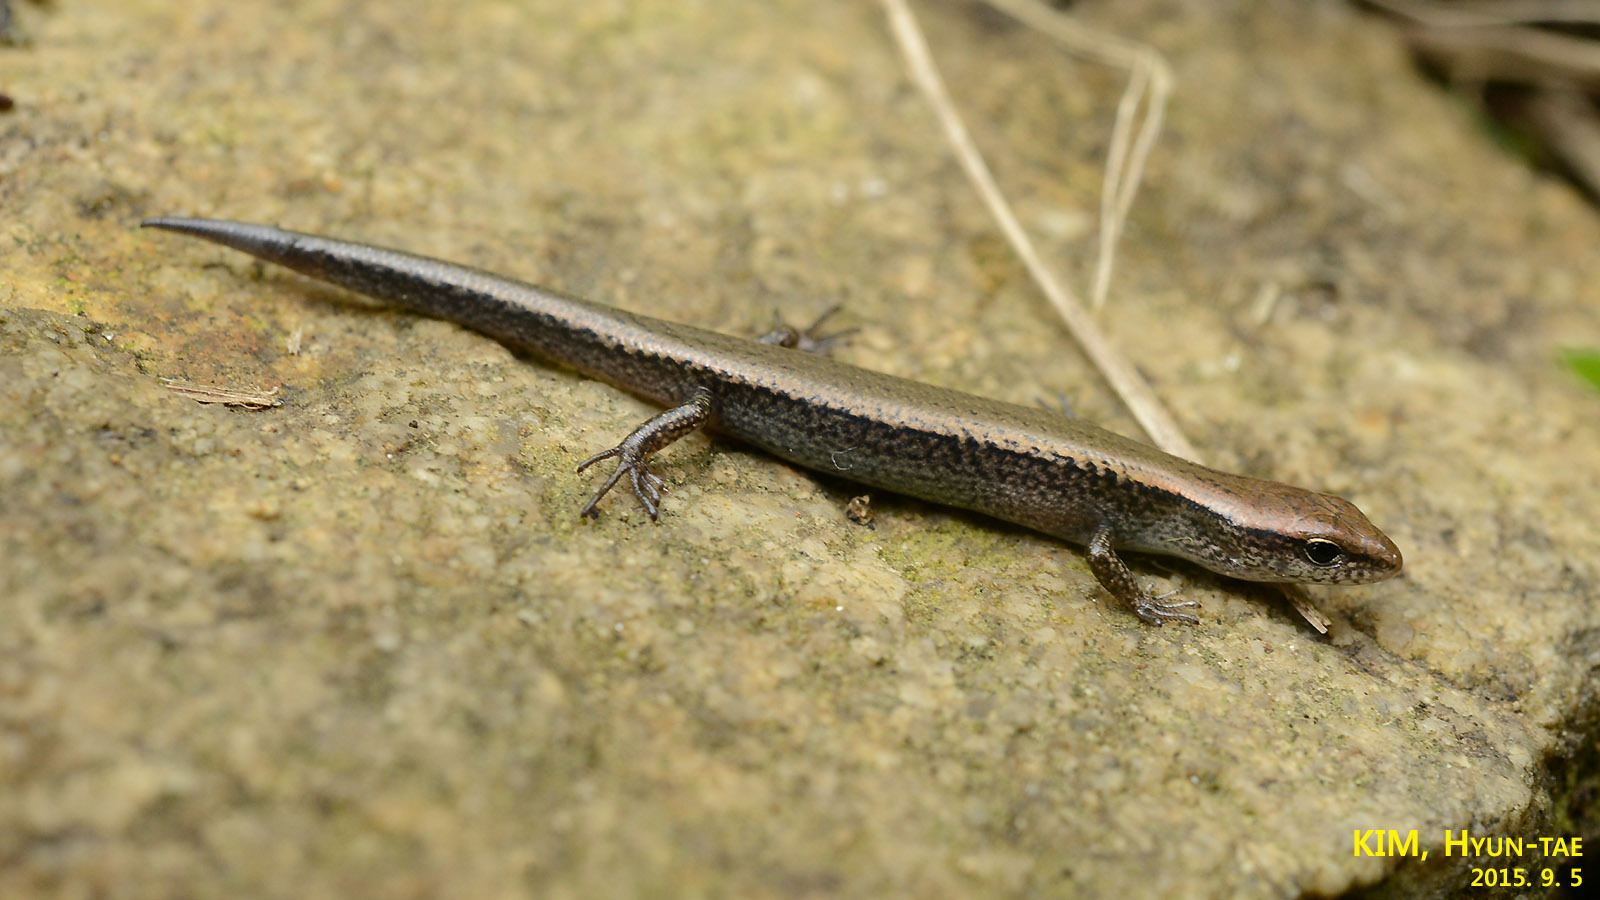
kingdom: Animalia
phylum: Chordata
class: Squamata
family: Scincidae
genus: Scincella
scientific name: Scincella vandenburghi
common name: Tsushima smooth skink
